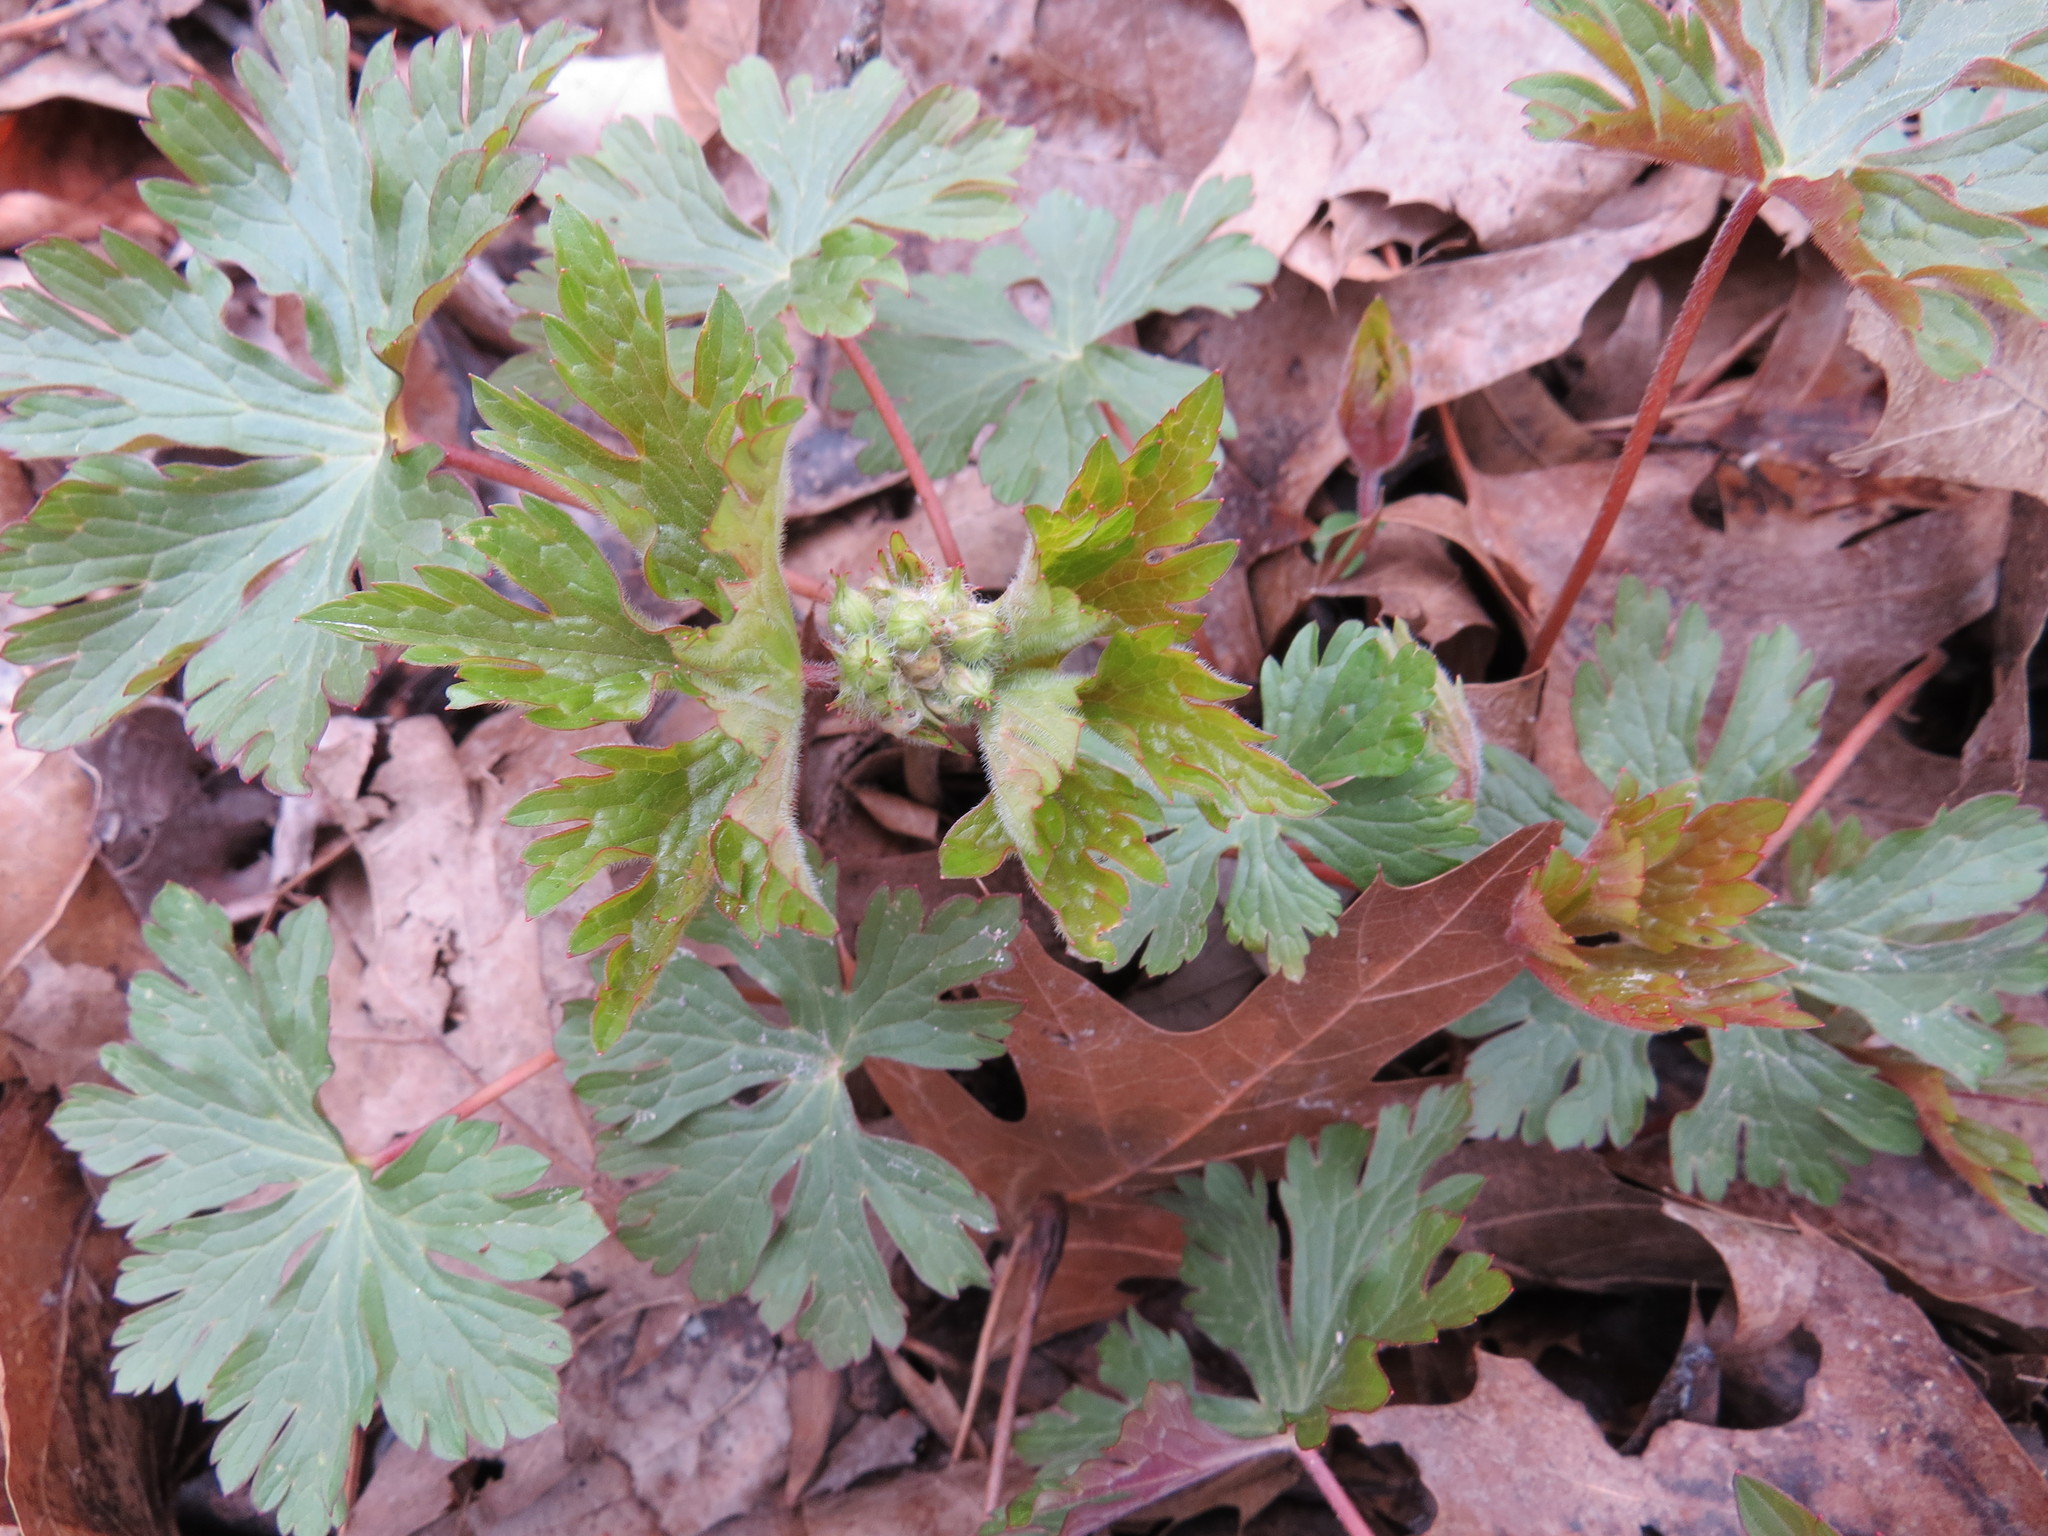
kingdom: Plantae
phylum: Tracheophyta
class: Magnoliopsida
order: Geraniales
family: Geraniaceae
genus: Geranium
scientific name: Geranium maculatum
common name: Spotted geranium
